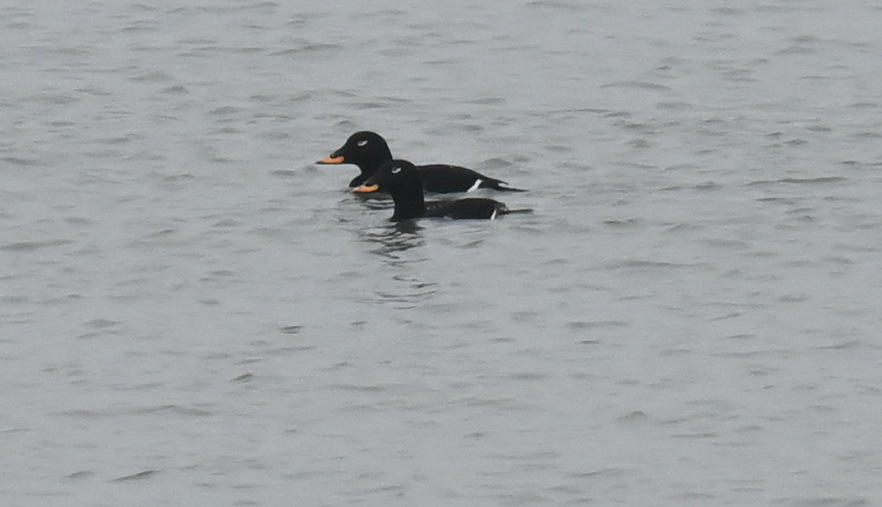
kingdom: Animalia
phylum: Chordata
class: Aves
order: Anseriformes
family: Anatidae
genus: Melanitta
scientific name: Melanitta fusca
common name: Velvet scoter
